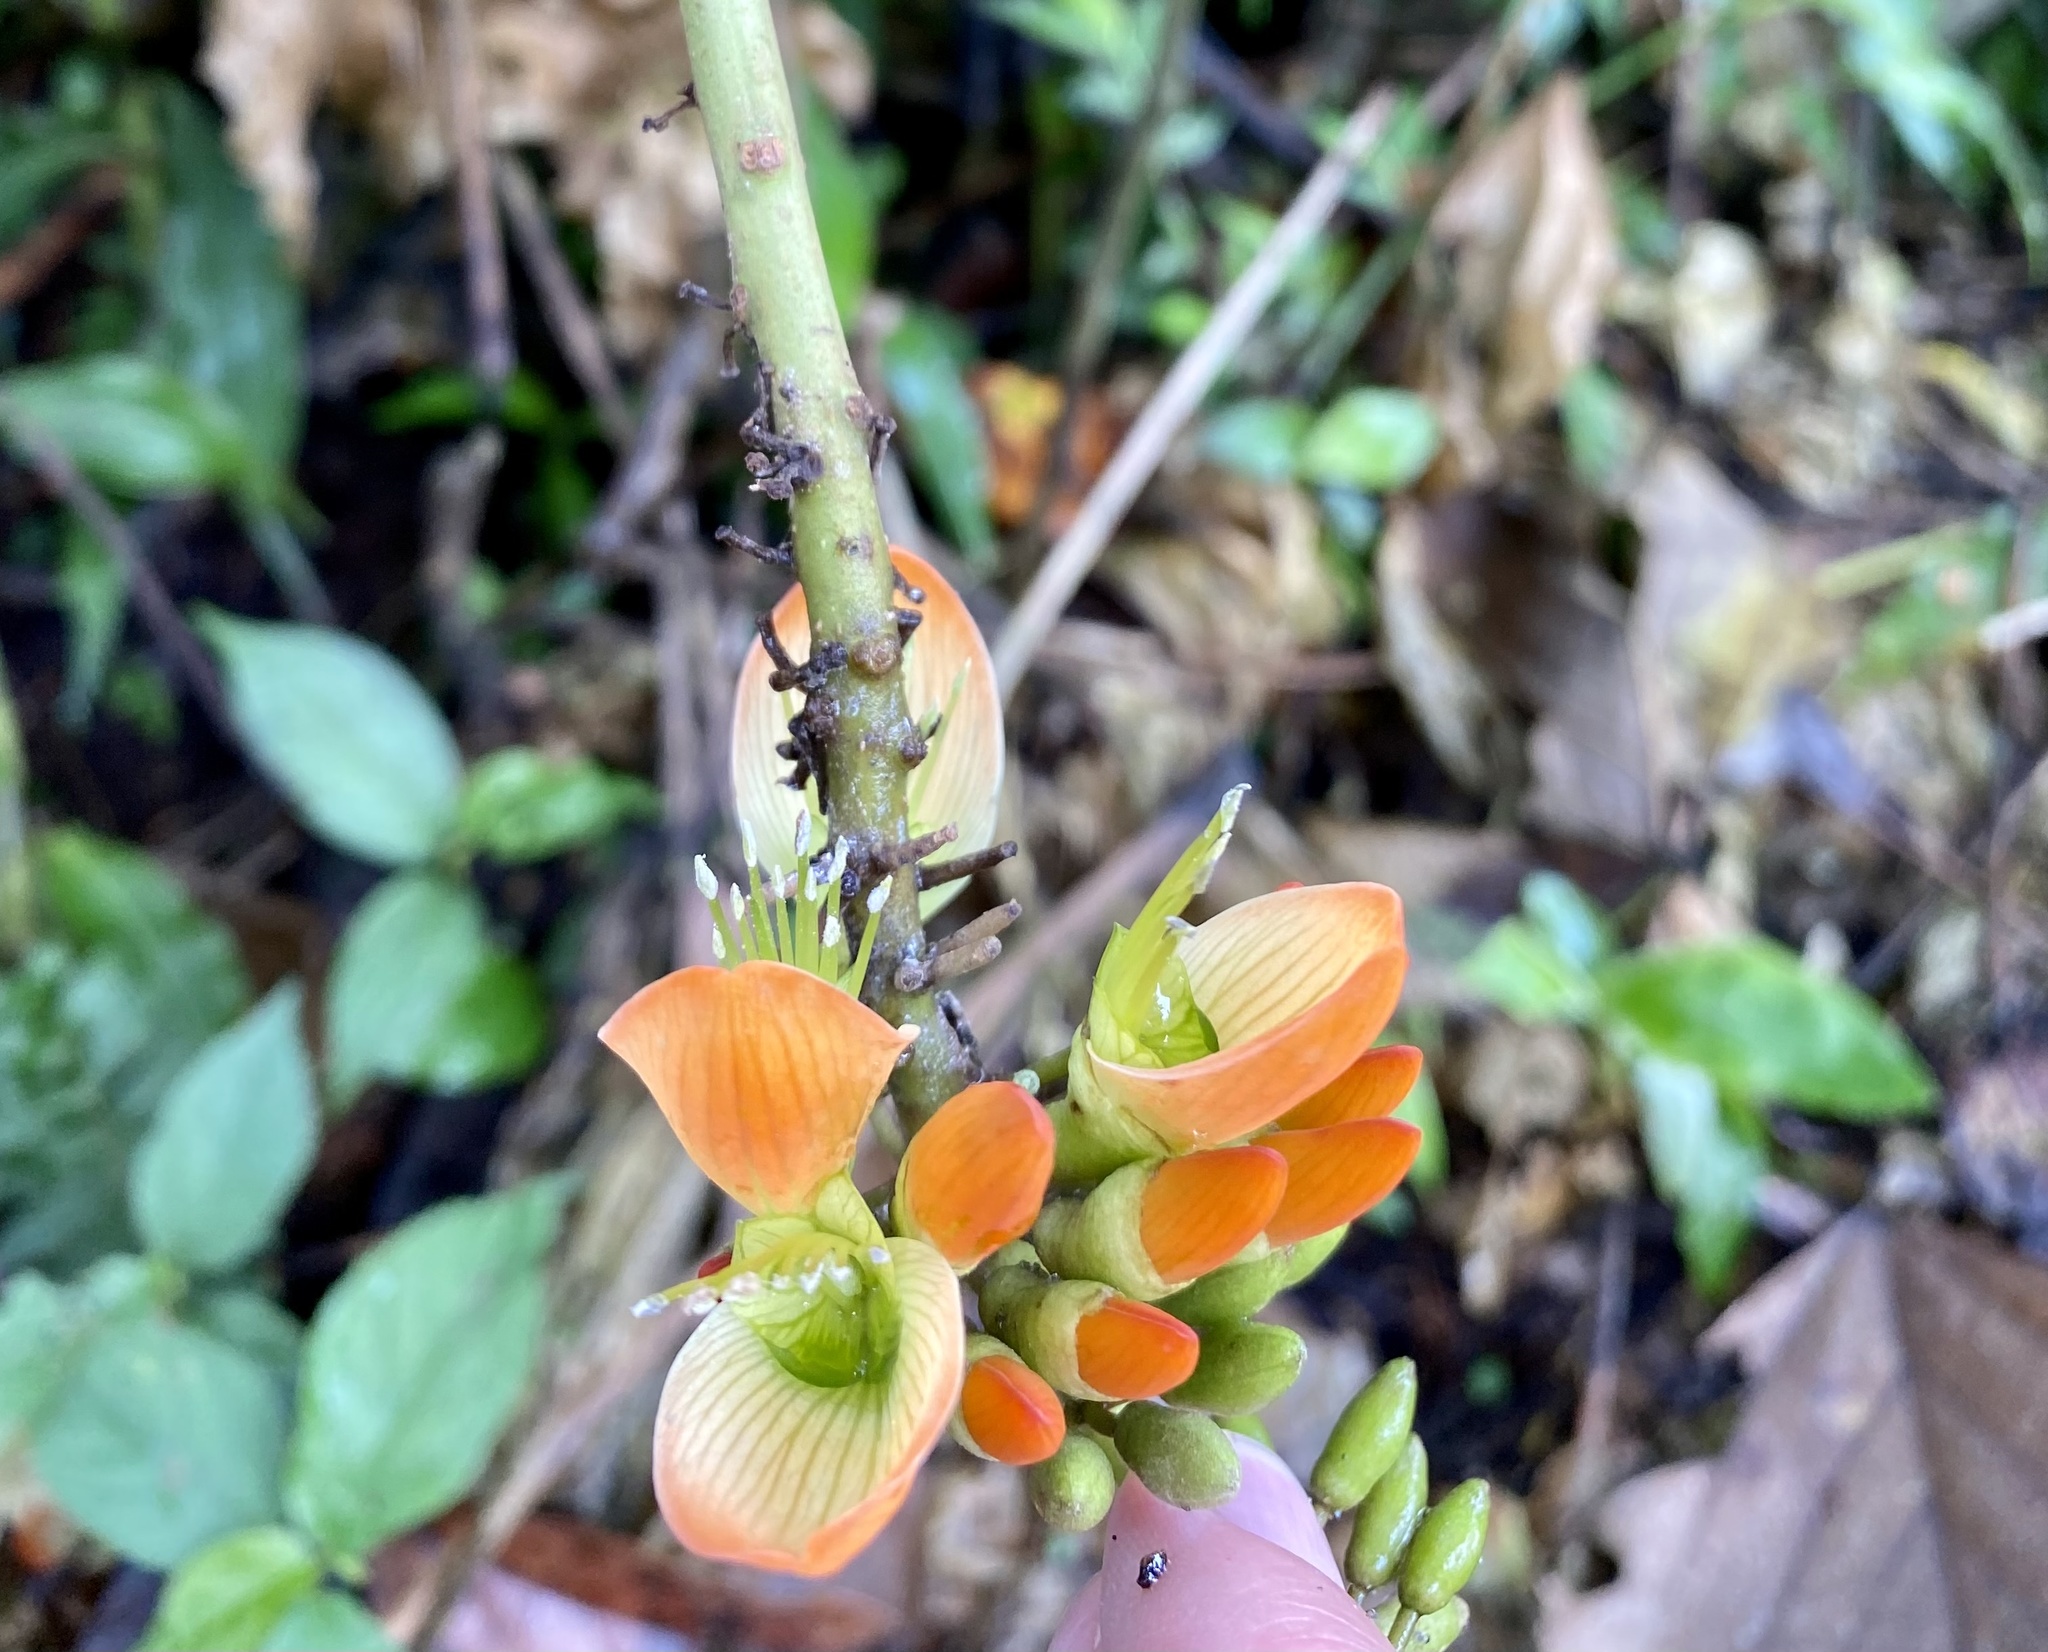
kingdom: Plantae
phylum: Tracheophyta
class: Magnoliopsida
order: Fabales
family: Fabaceae
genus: Erythrina
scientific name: Erythrina edulis
